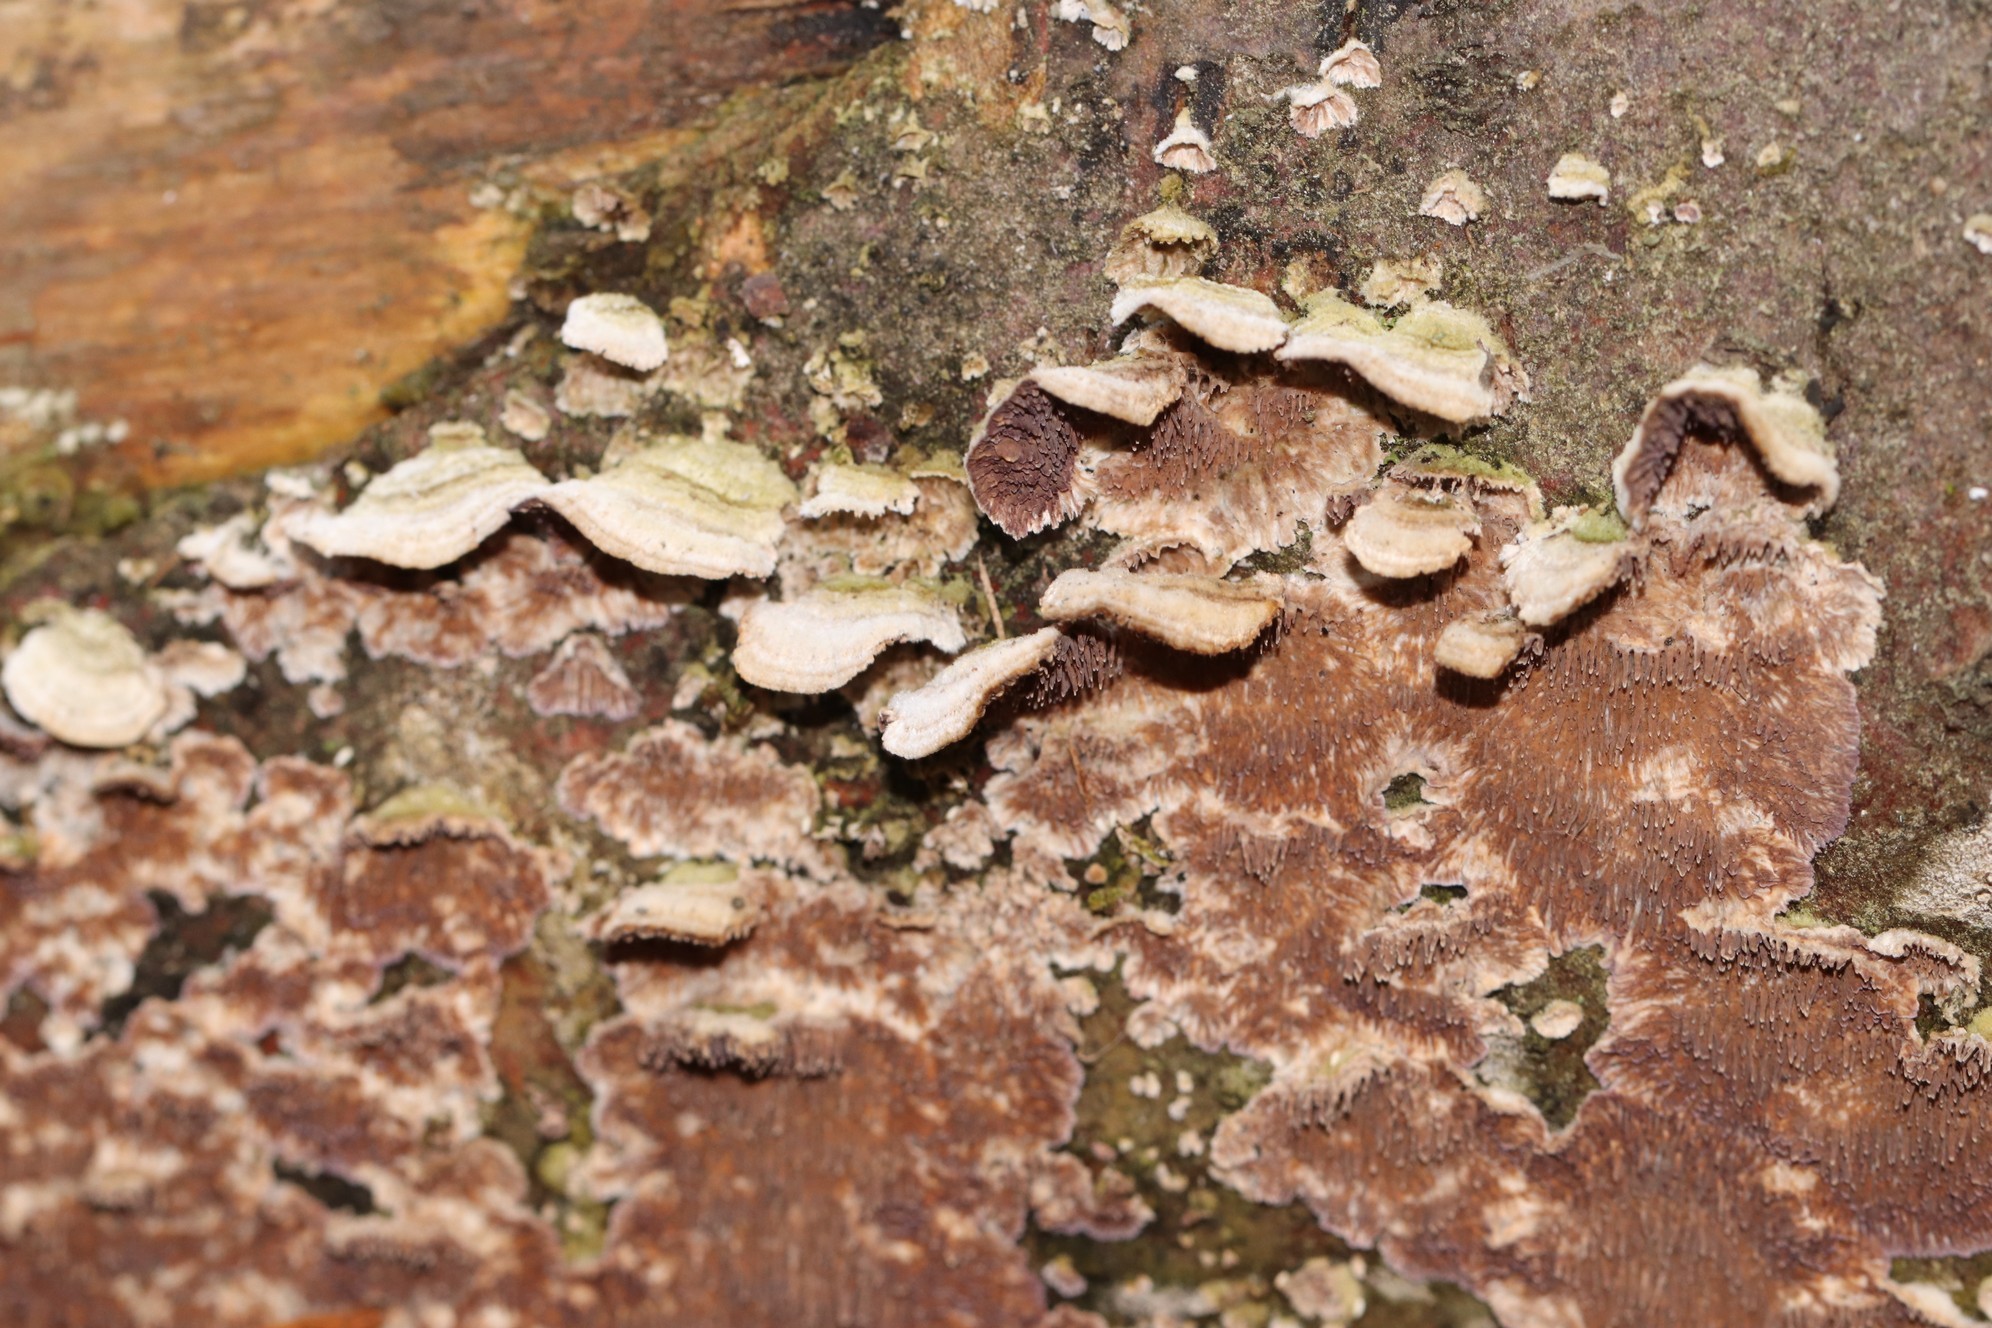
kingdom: Fungi
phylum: Basidiomycota
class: Agaricomycetes
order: Hymenochaetales
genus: Trichaptum
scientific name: Trichaptum fuscoviolaceum
